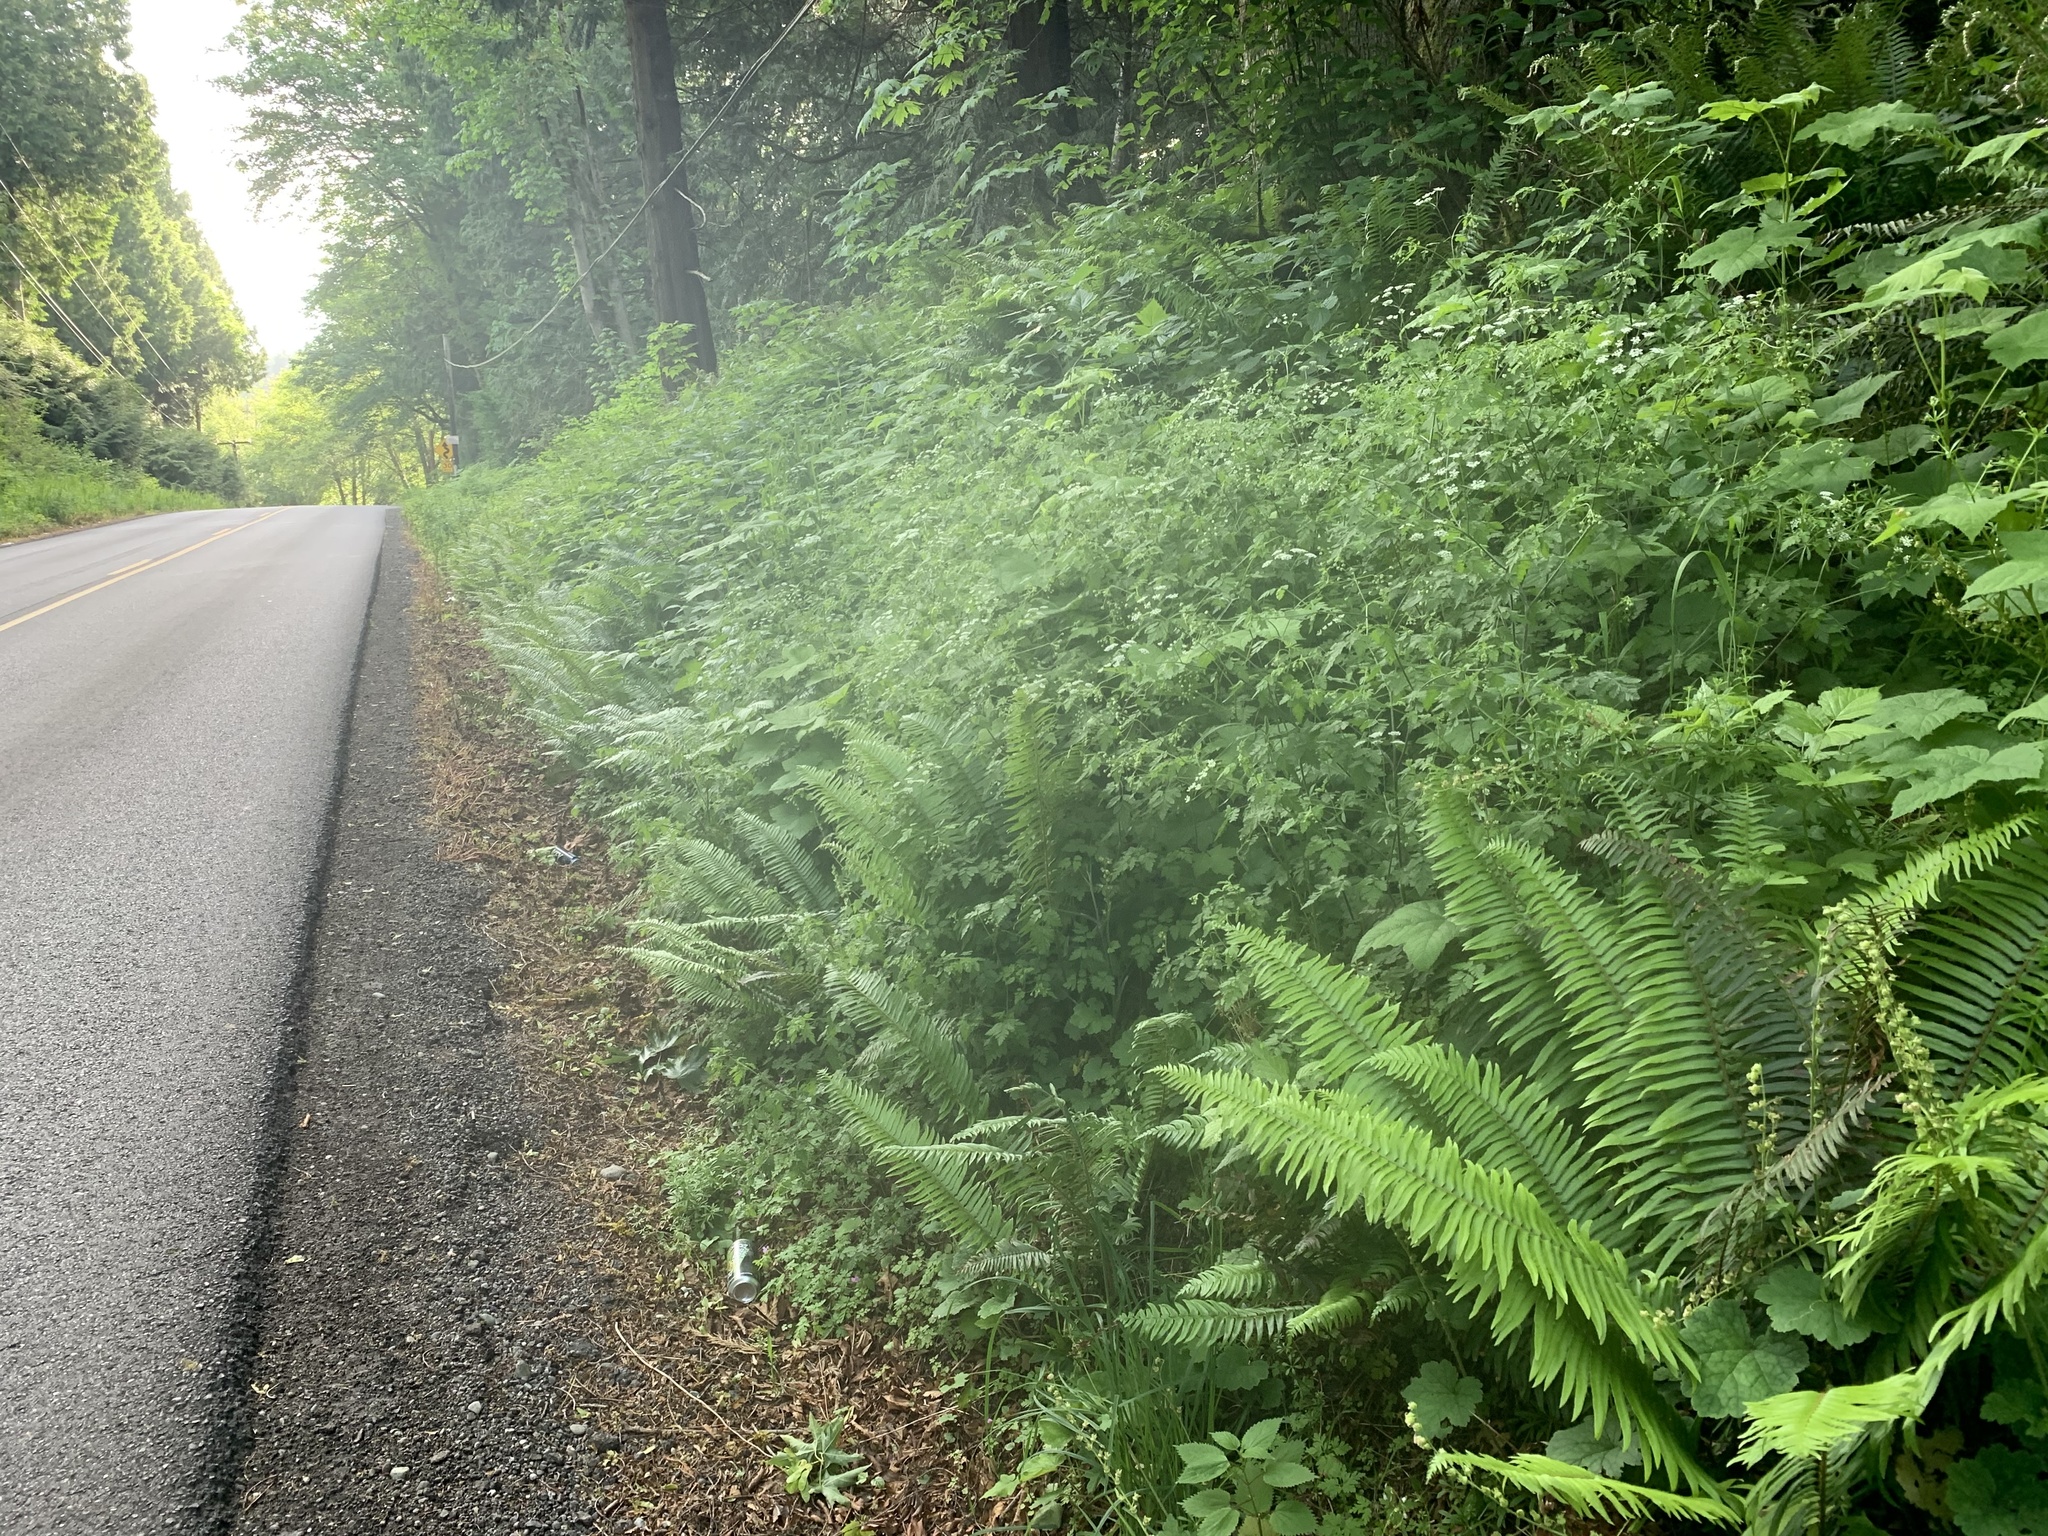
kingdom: Plantae
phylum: Tracheophyta
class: Magnoliopsida
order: Apiales
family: Apiaceae
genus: Chaerophyllum
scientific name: Chaerophyllum temulum
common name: Rough chervil
